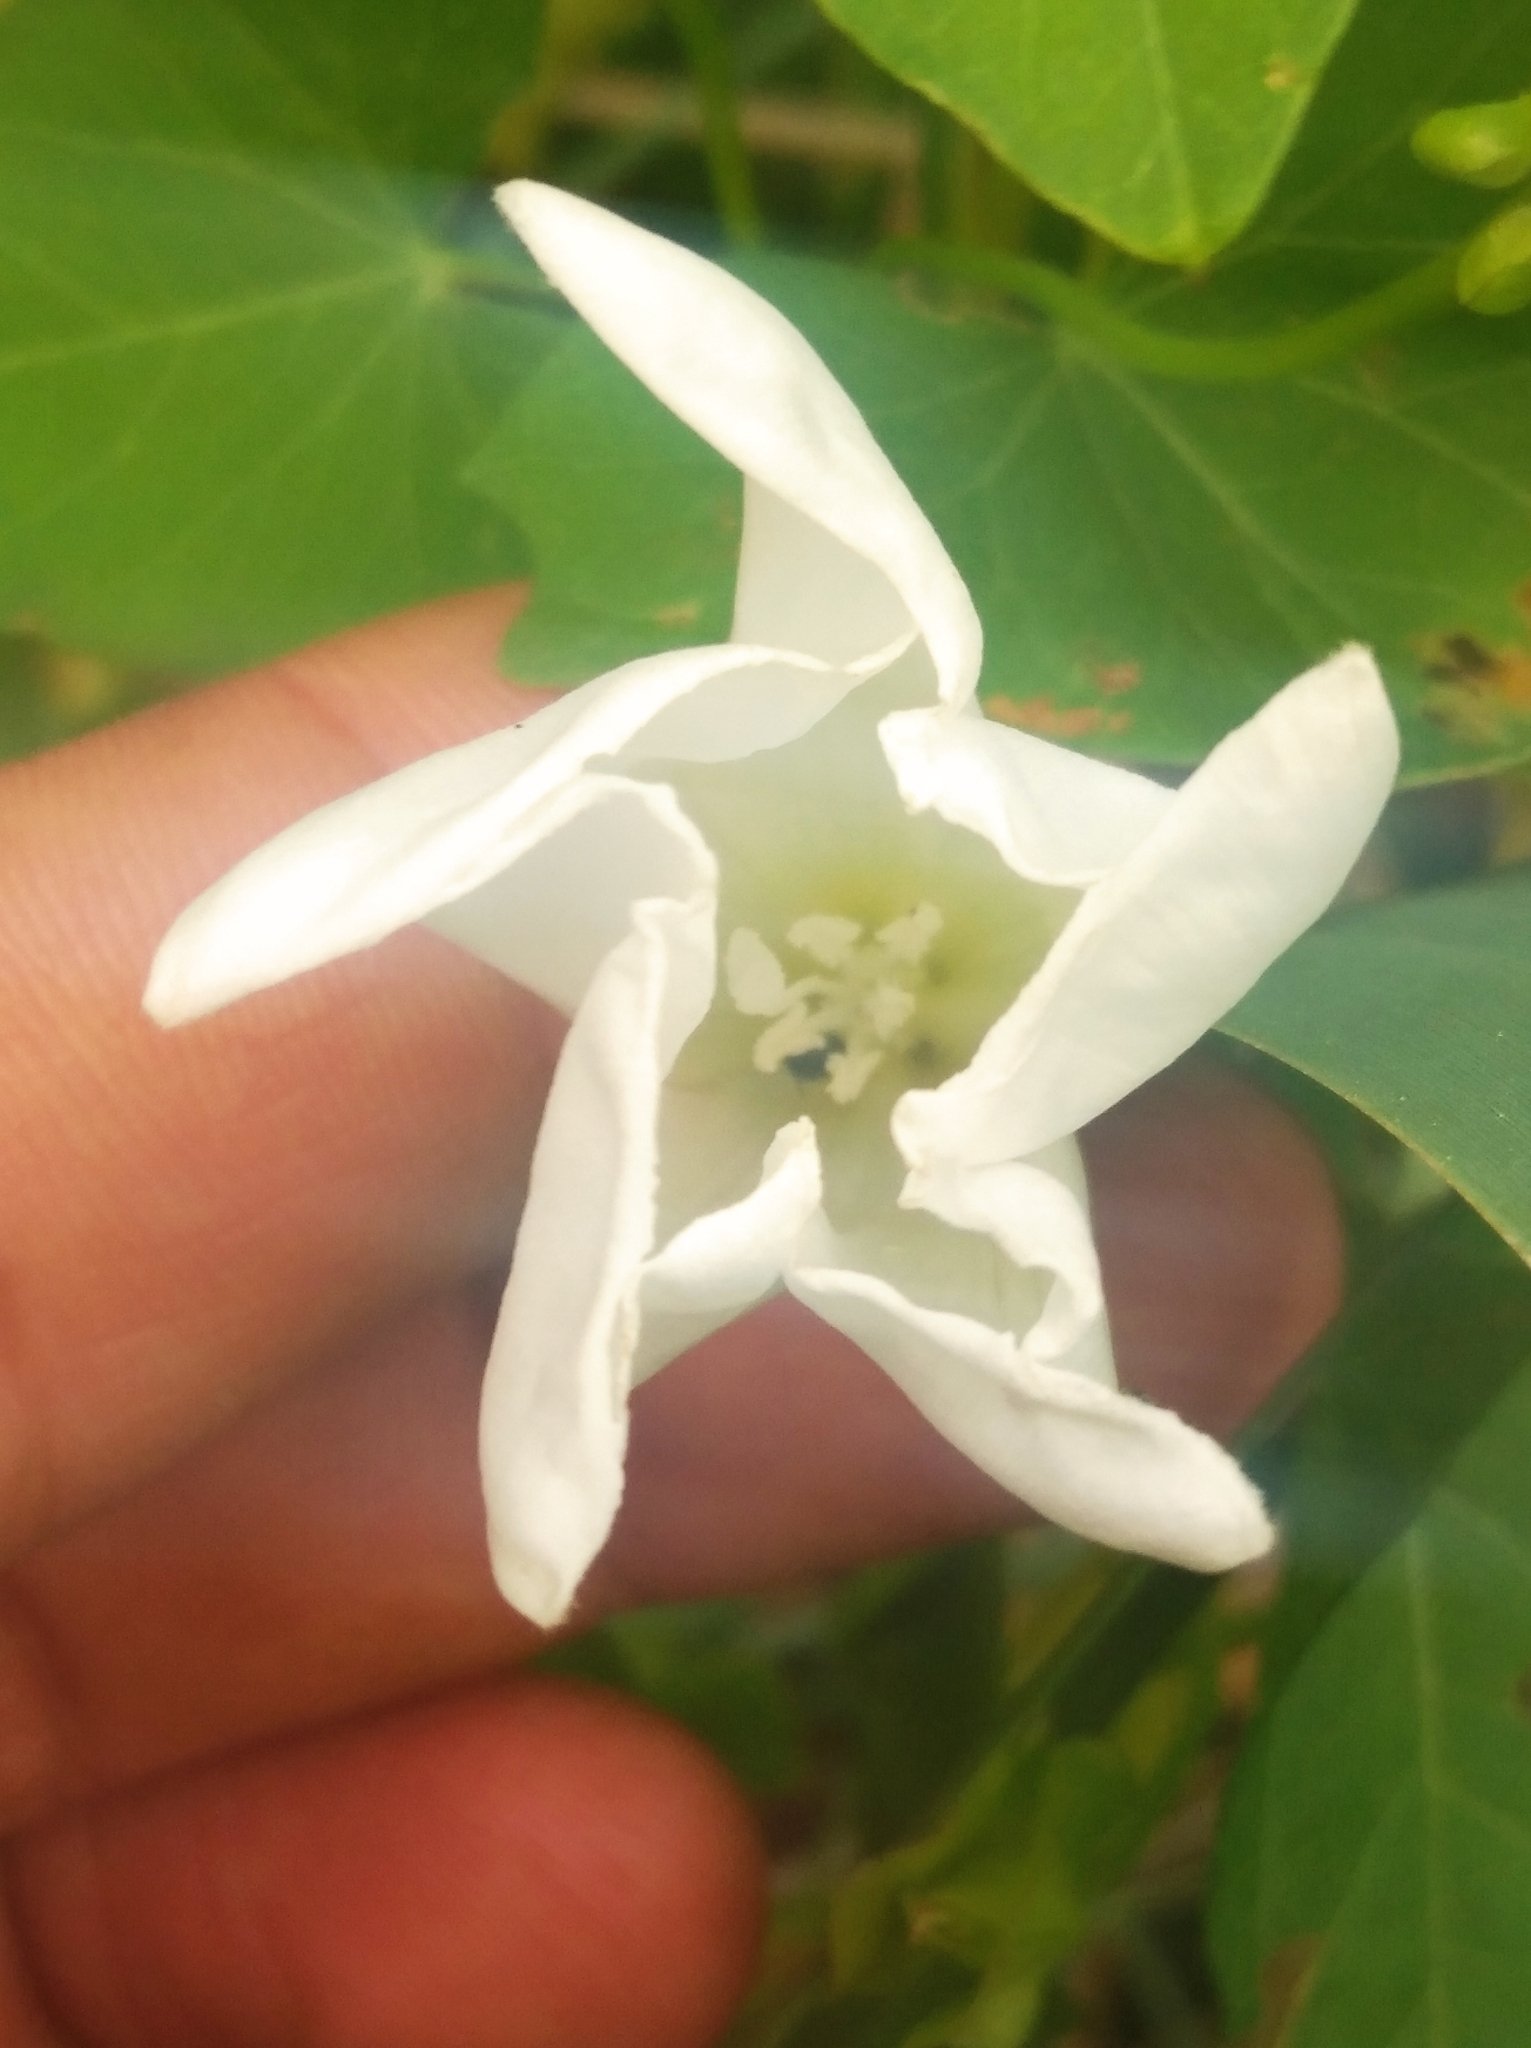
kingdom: Plantae
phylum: Tracheophyta
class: Magnoliopsida
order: Solanales
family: Convolvulaceae
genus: Calystegia
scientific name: Calystegia sepium
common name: Hedge bindweed
